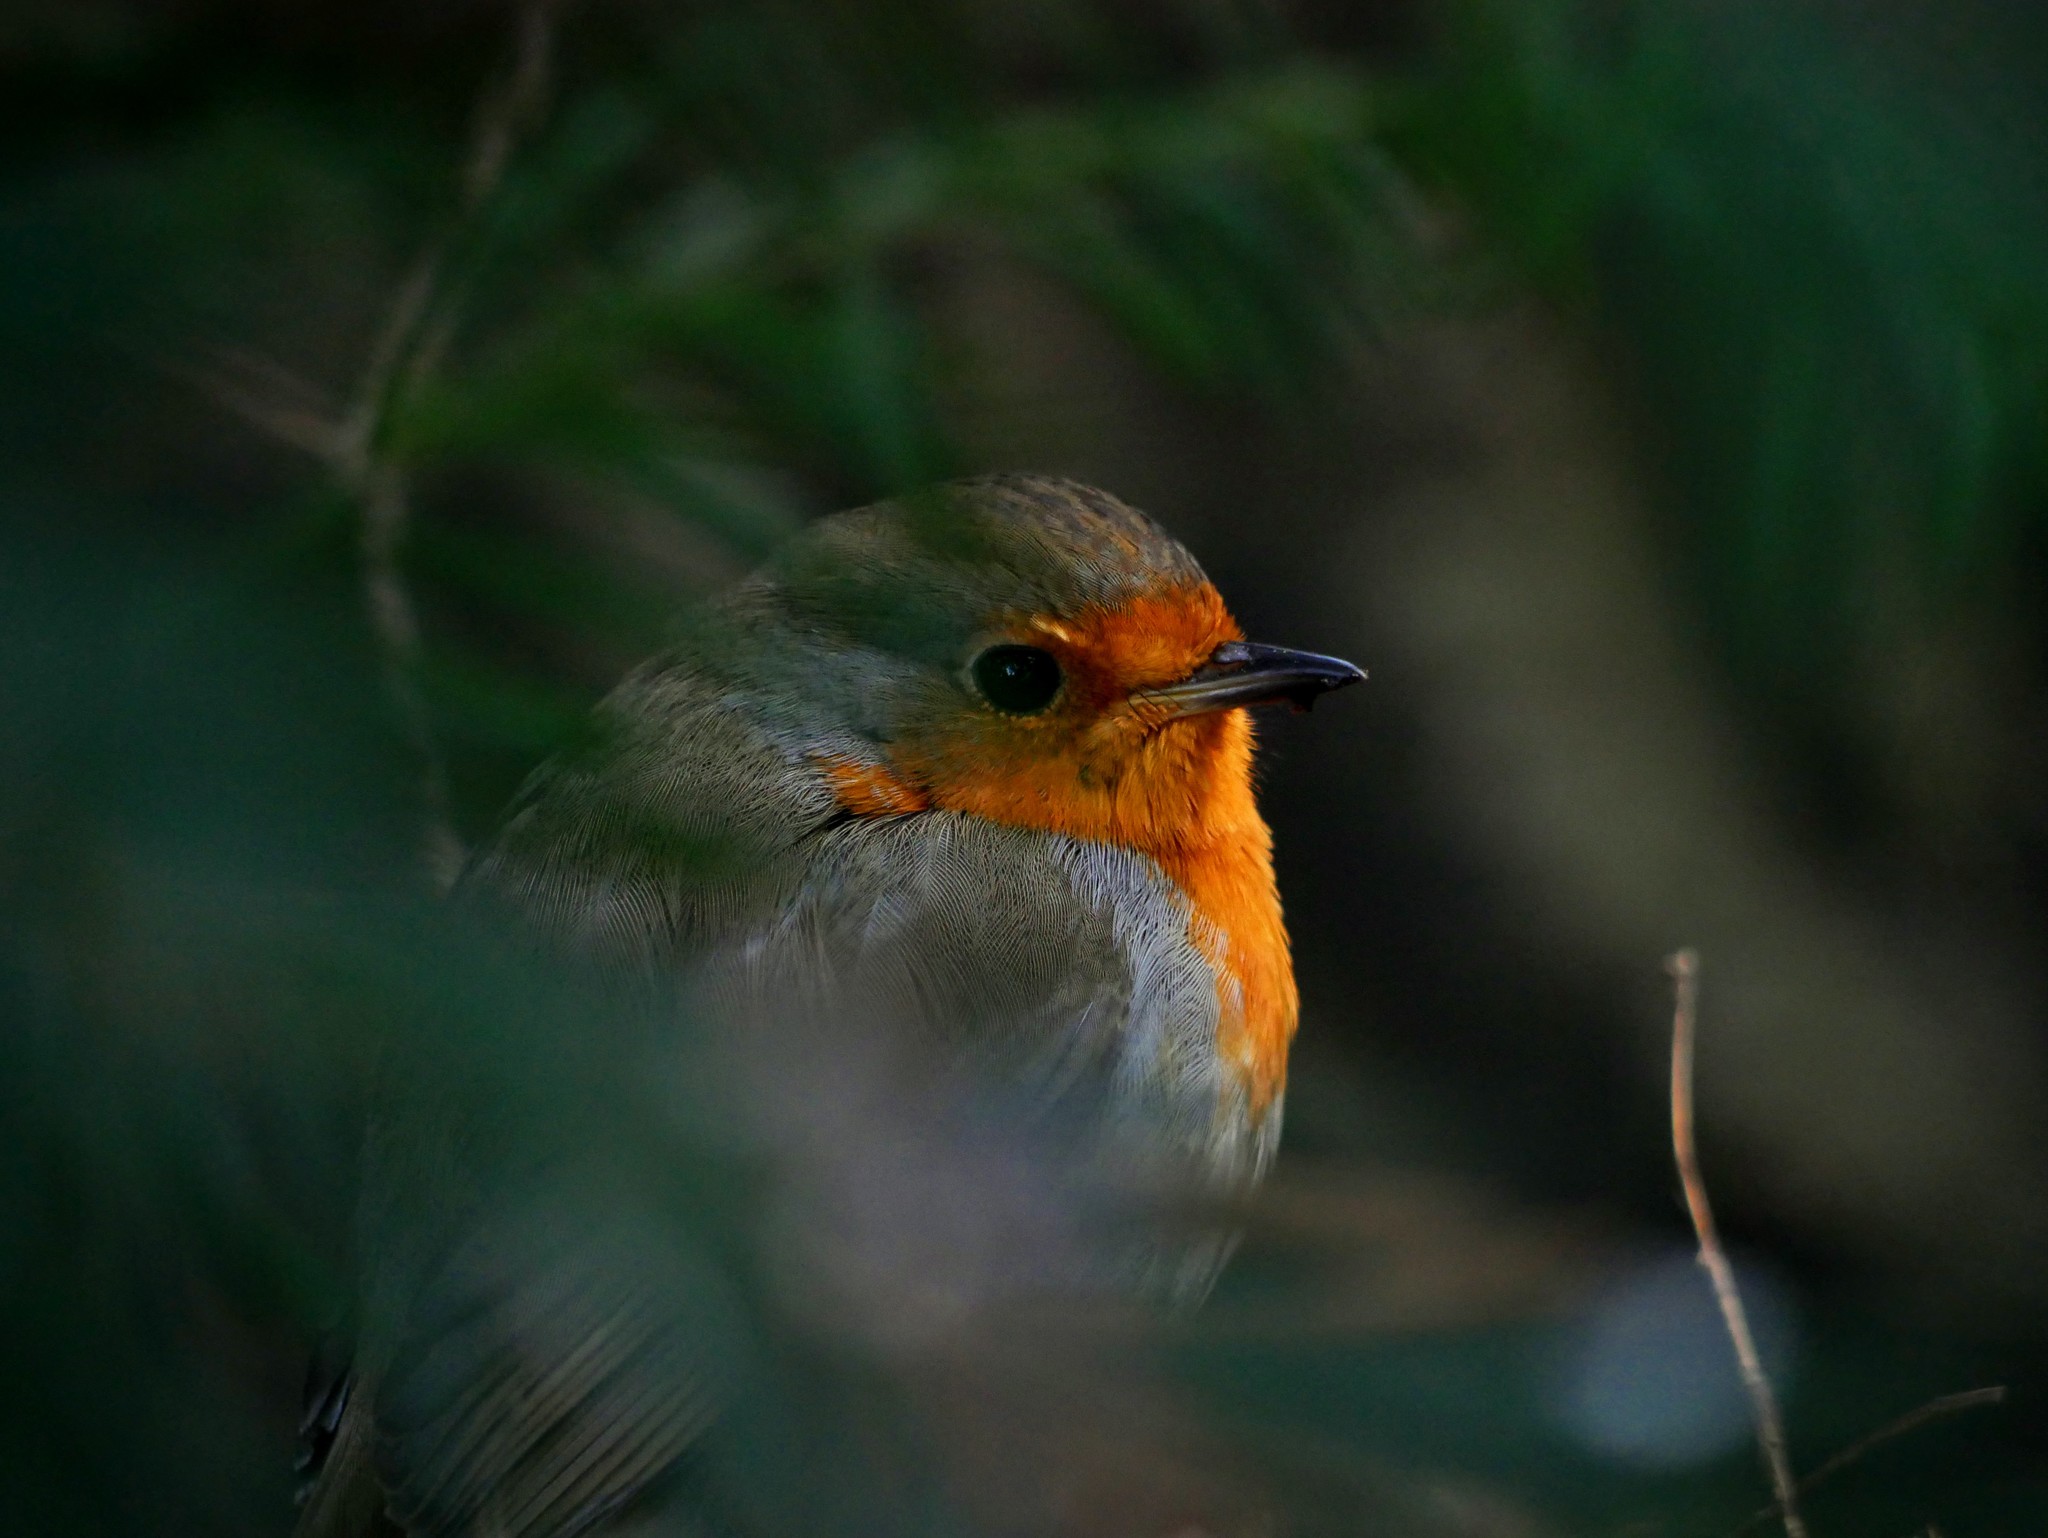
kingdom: Animalia
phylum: Chordata
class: Aves
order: Passeriformes
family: Muscicapidae
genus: Erithacus
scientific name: Erithacus rubecula
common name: European robin
